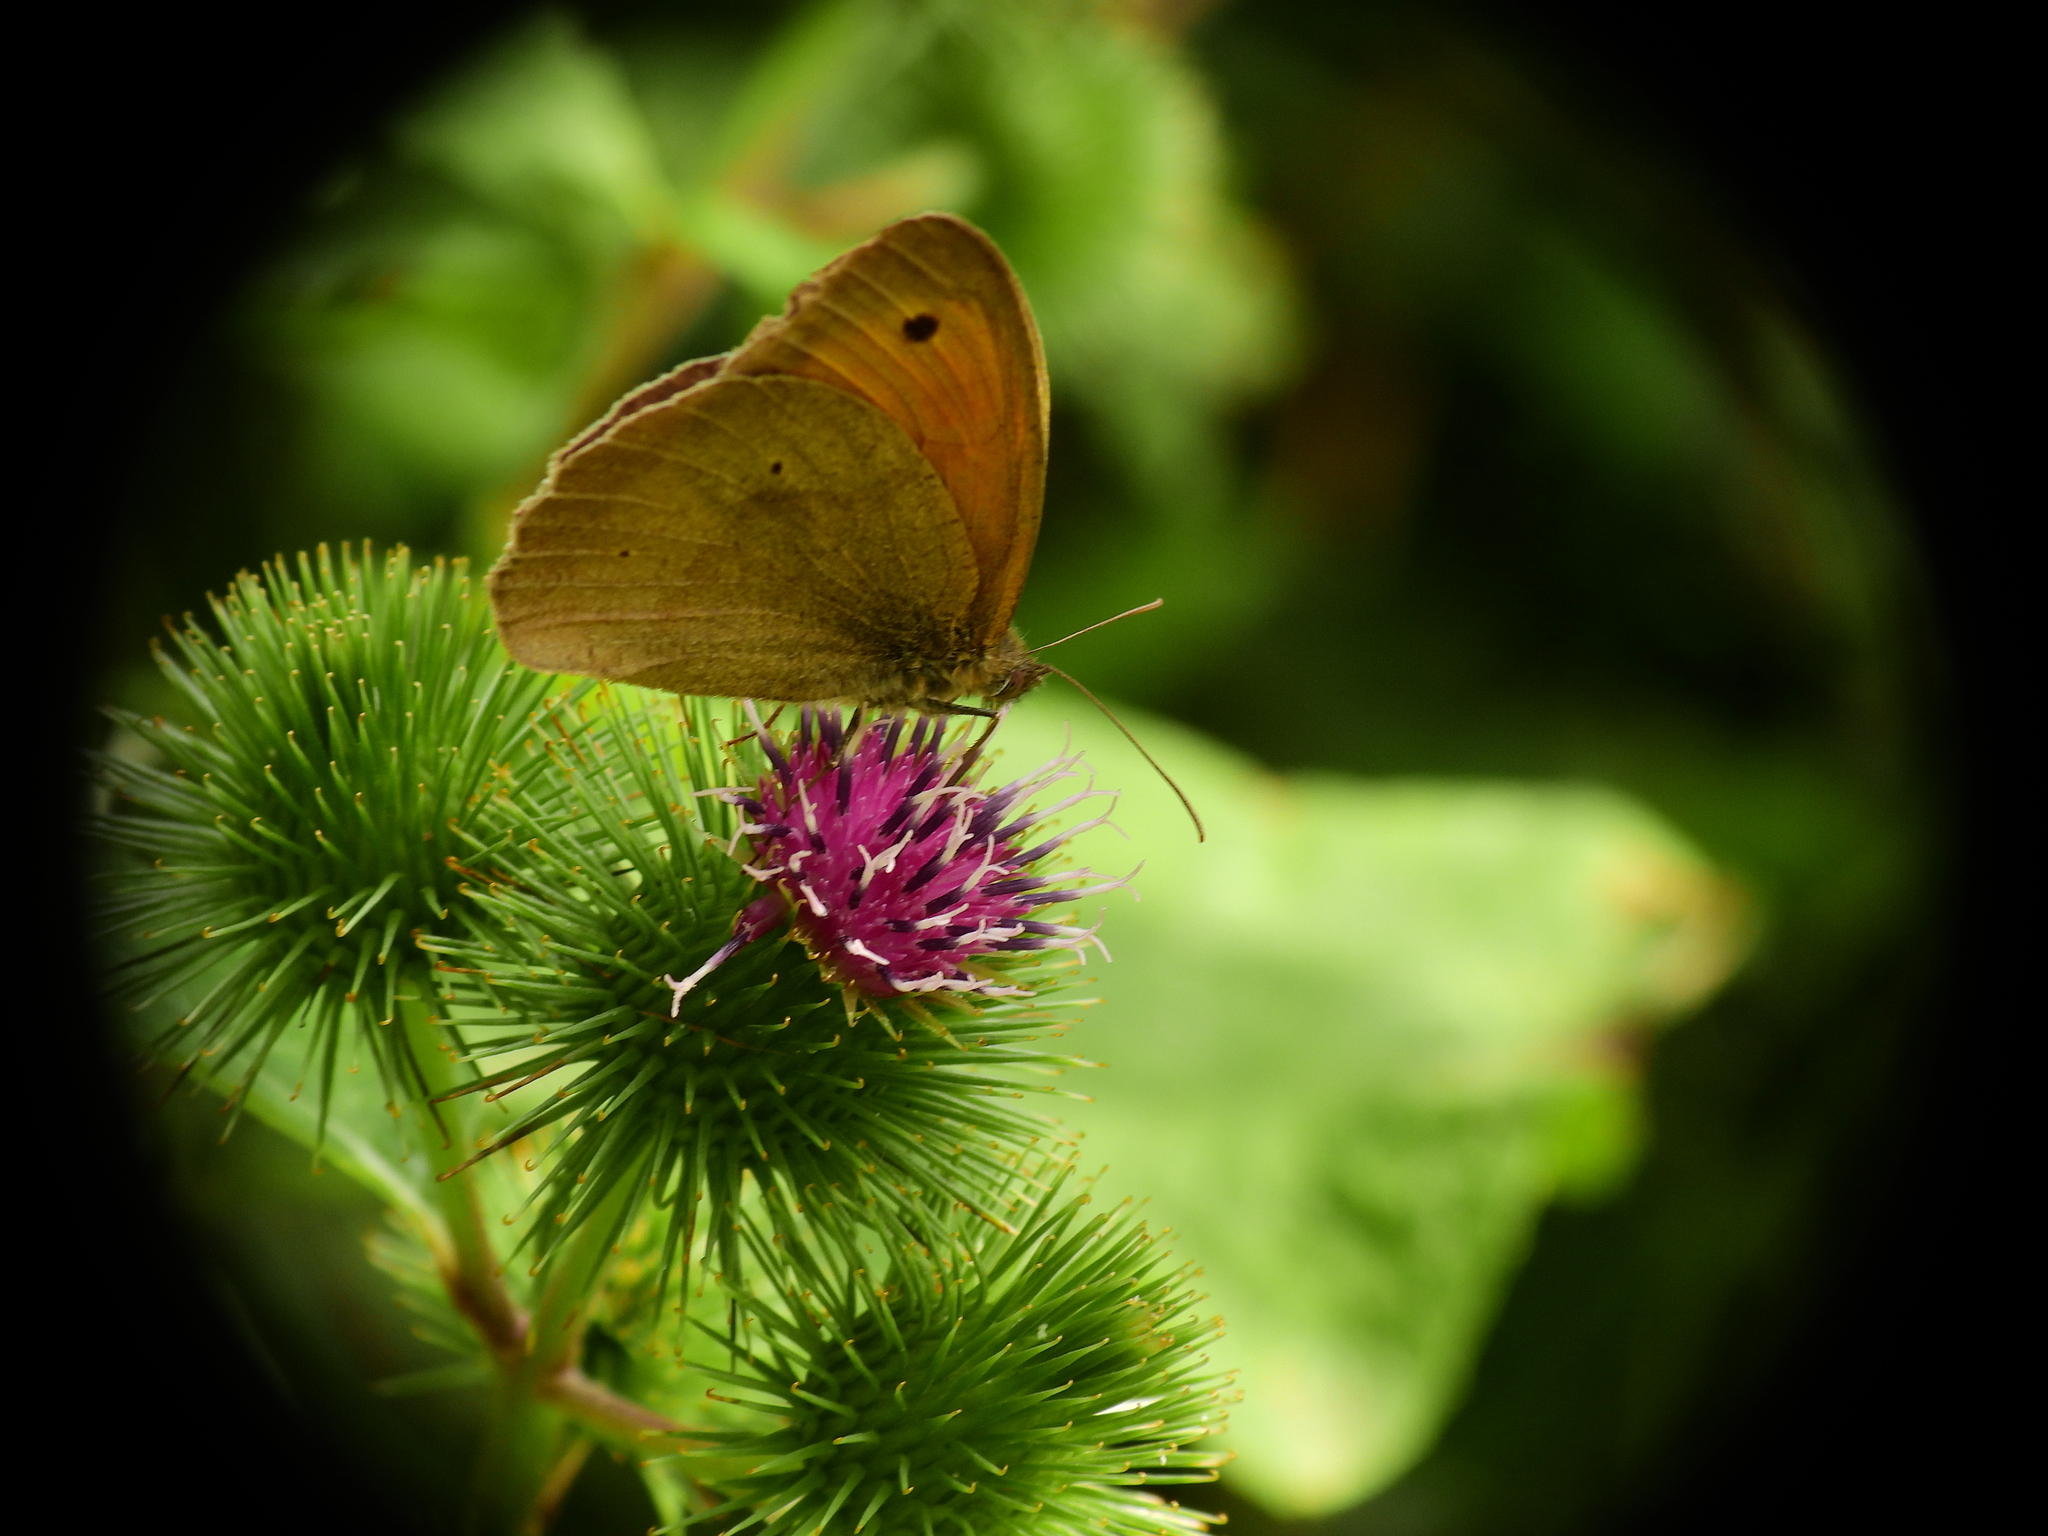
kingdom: Animalia
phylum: Arthropoda
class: Insecta
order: Lepidoptera
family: Nymphalidae
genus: Maniola
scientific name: Maniola jurtina
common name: Meadow brown
